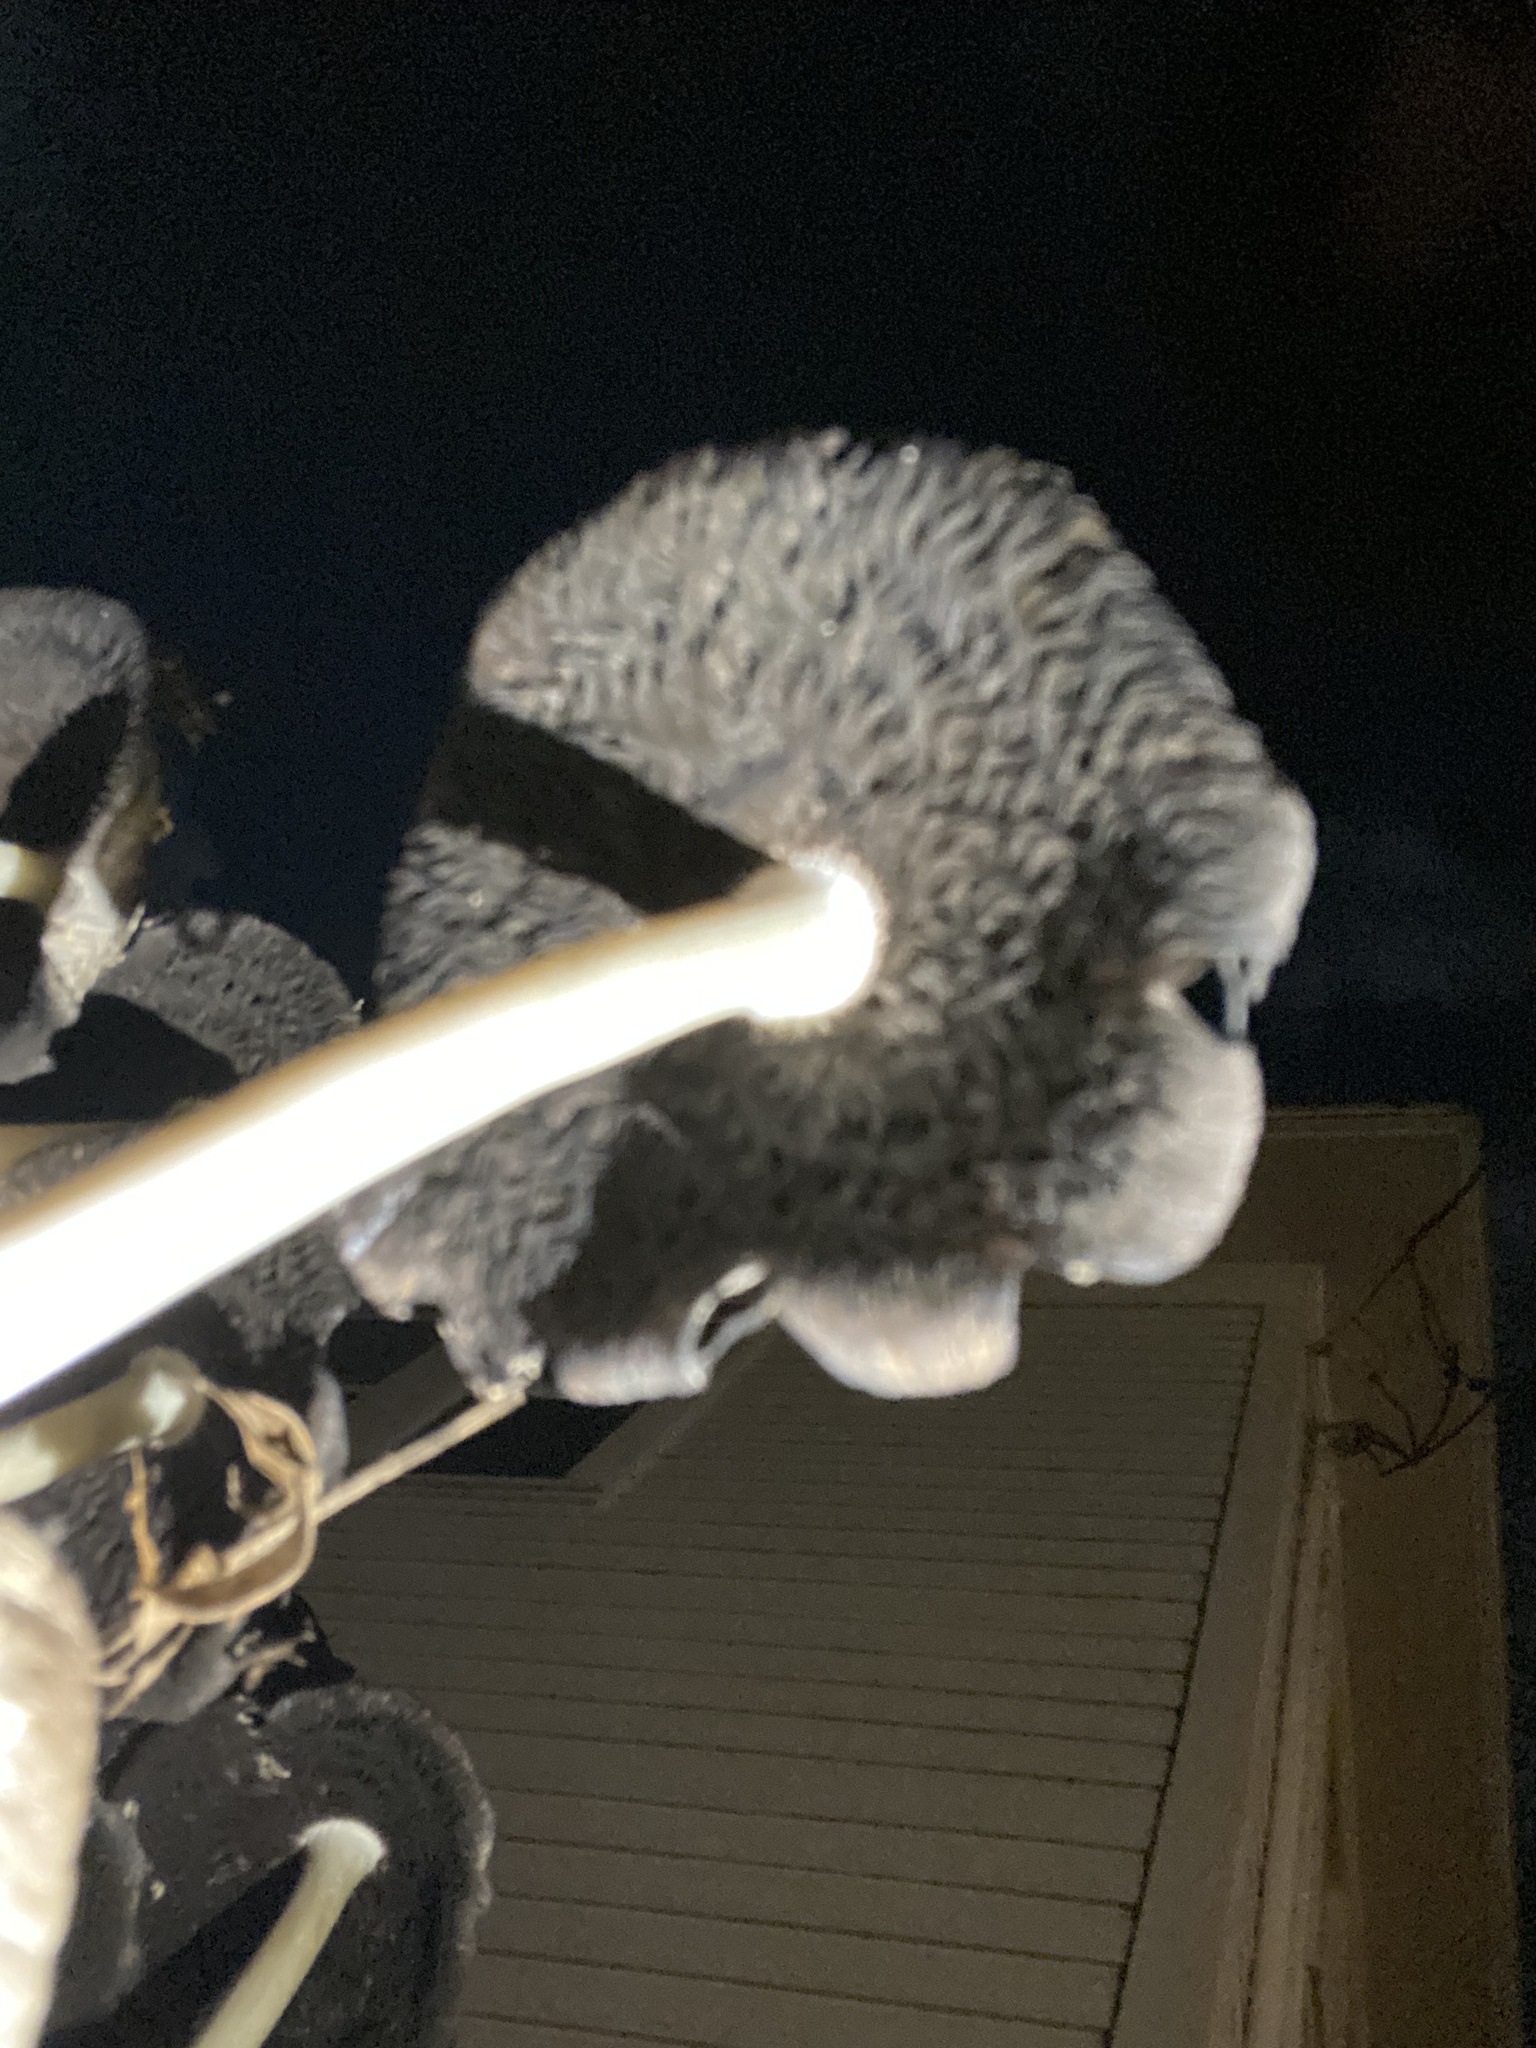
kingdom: Fungi
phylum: Basidiomycota
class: Agaricomycetes
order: Agaricales
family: Psathyrellaceae
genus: Coprinopsis
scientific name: Coprinopsis variegata
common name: Scaly ink cap
